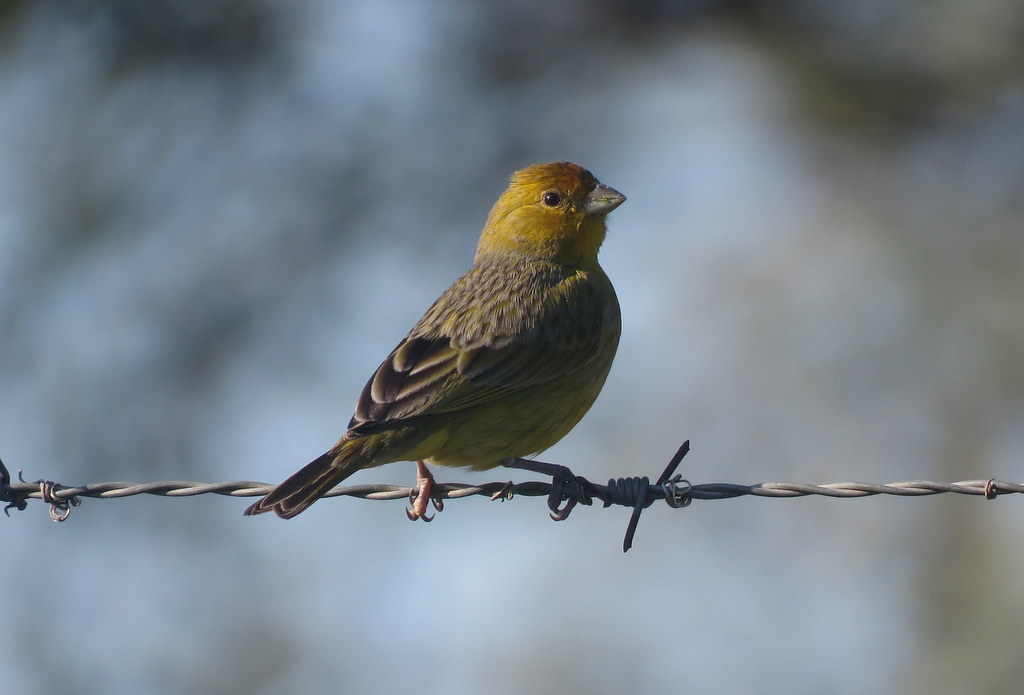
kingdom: Animalia
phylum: Chordata
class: Aves
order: Passeriformes
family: Thraupidae
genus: Sicalis
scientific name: Sicalis flaveola
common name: Saffron finch
